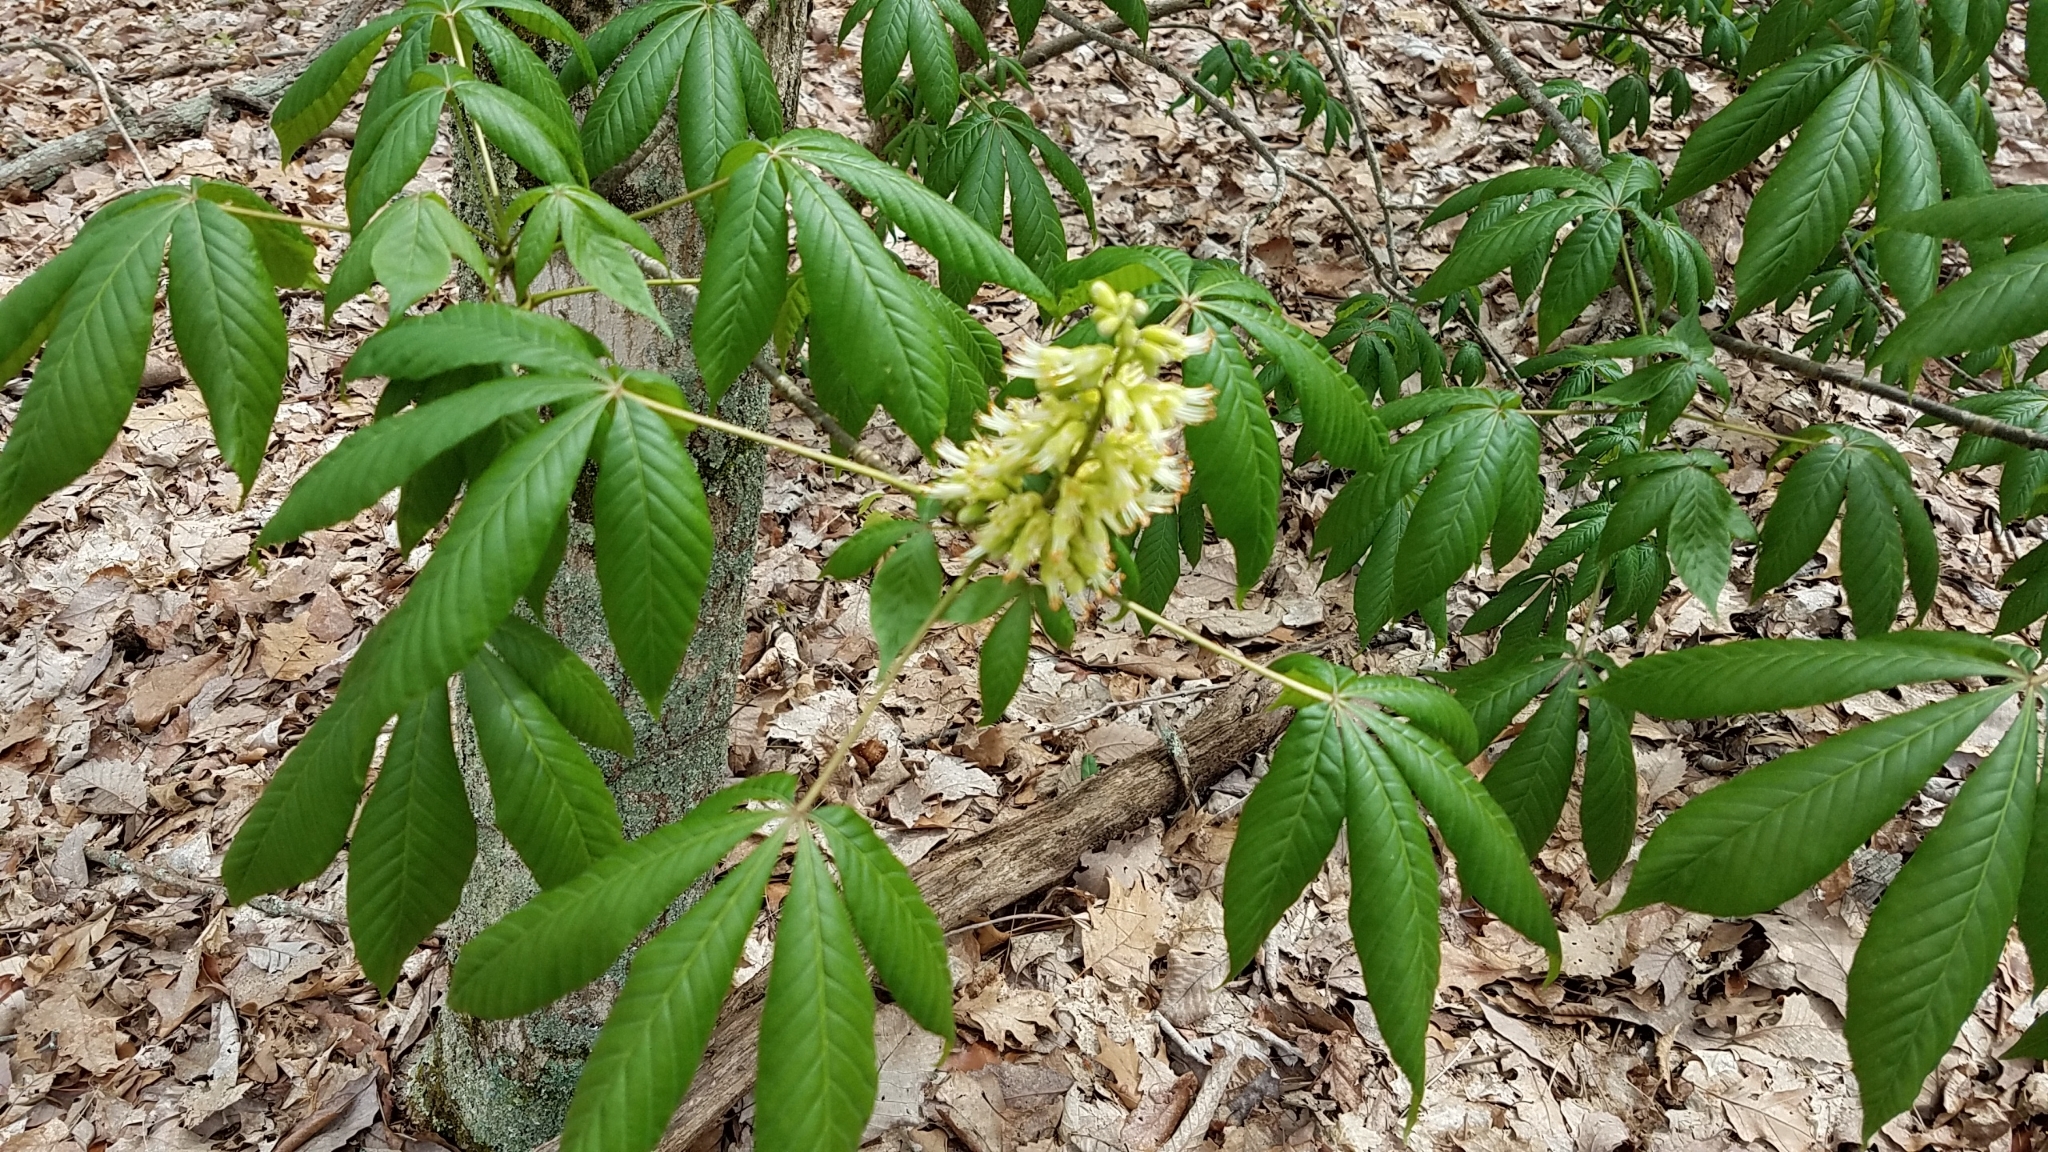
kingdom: Plantae
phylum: Tracheophyta
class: Magnoliopsida
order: Sapindales
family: Sapindaceae
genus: Aesculus
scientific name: Aesculus glabra
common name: Ohio buckeye
